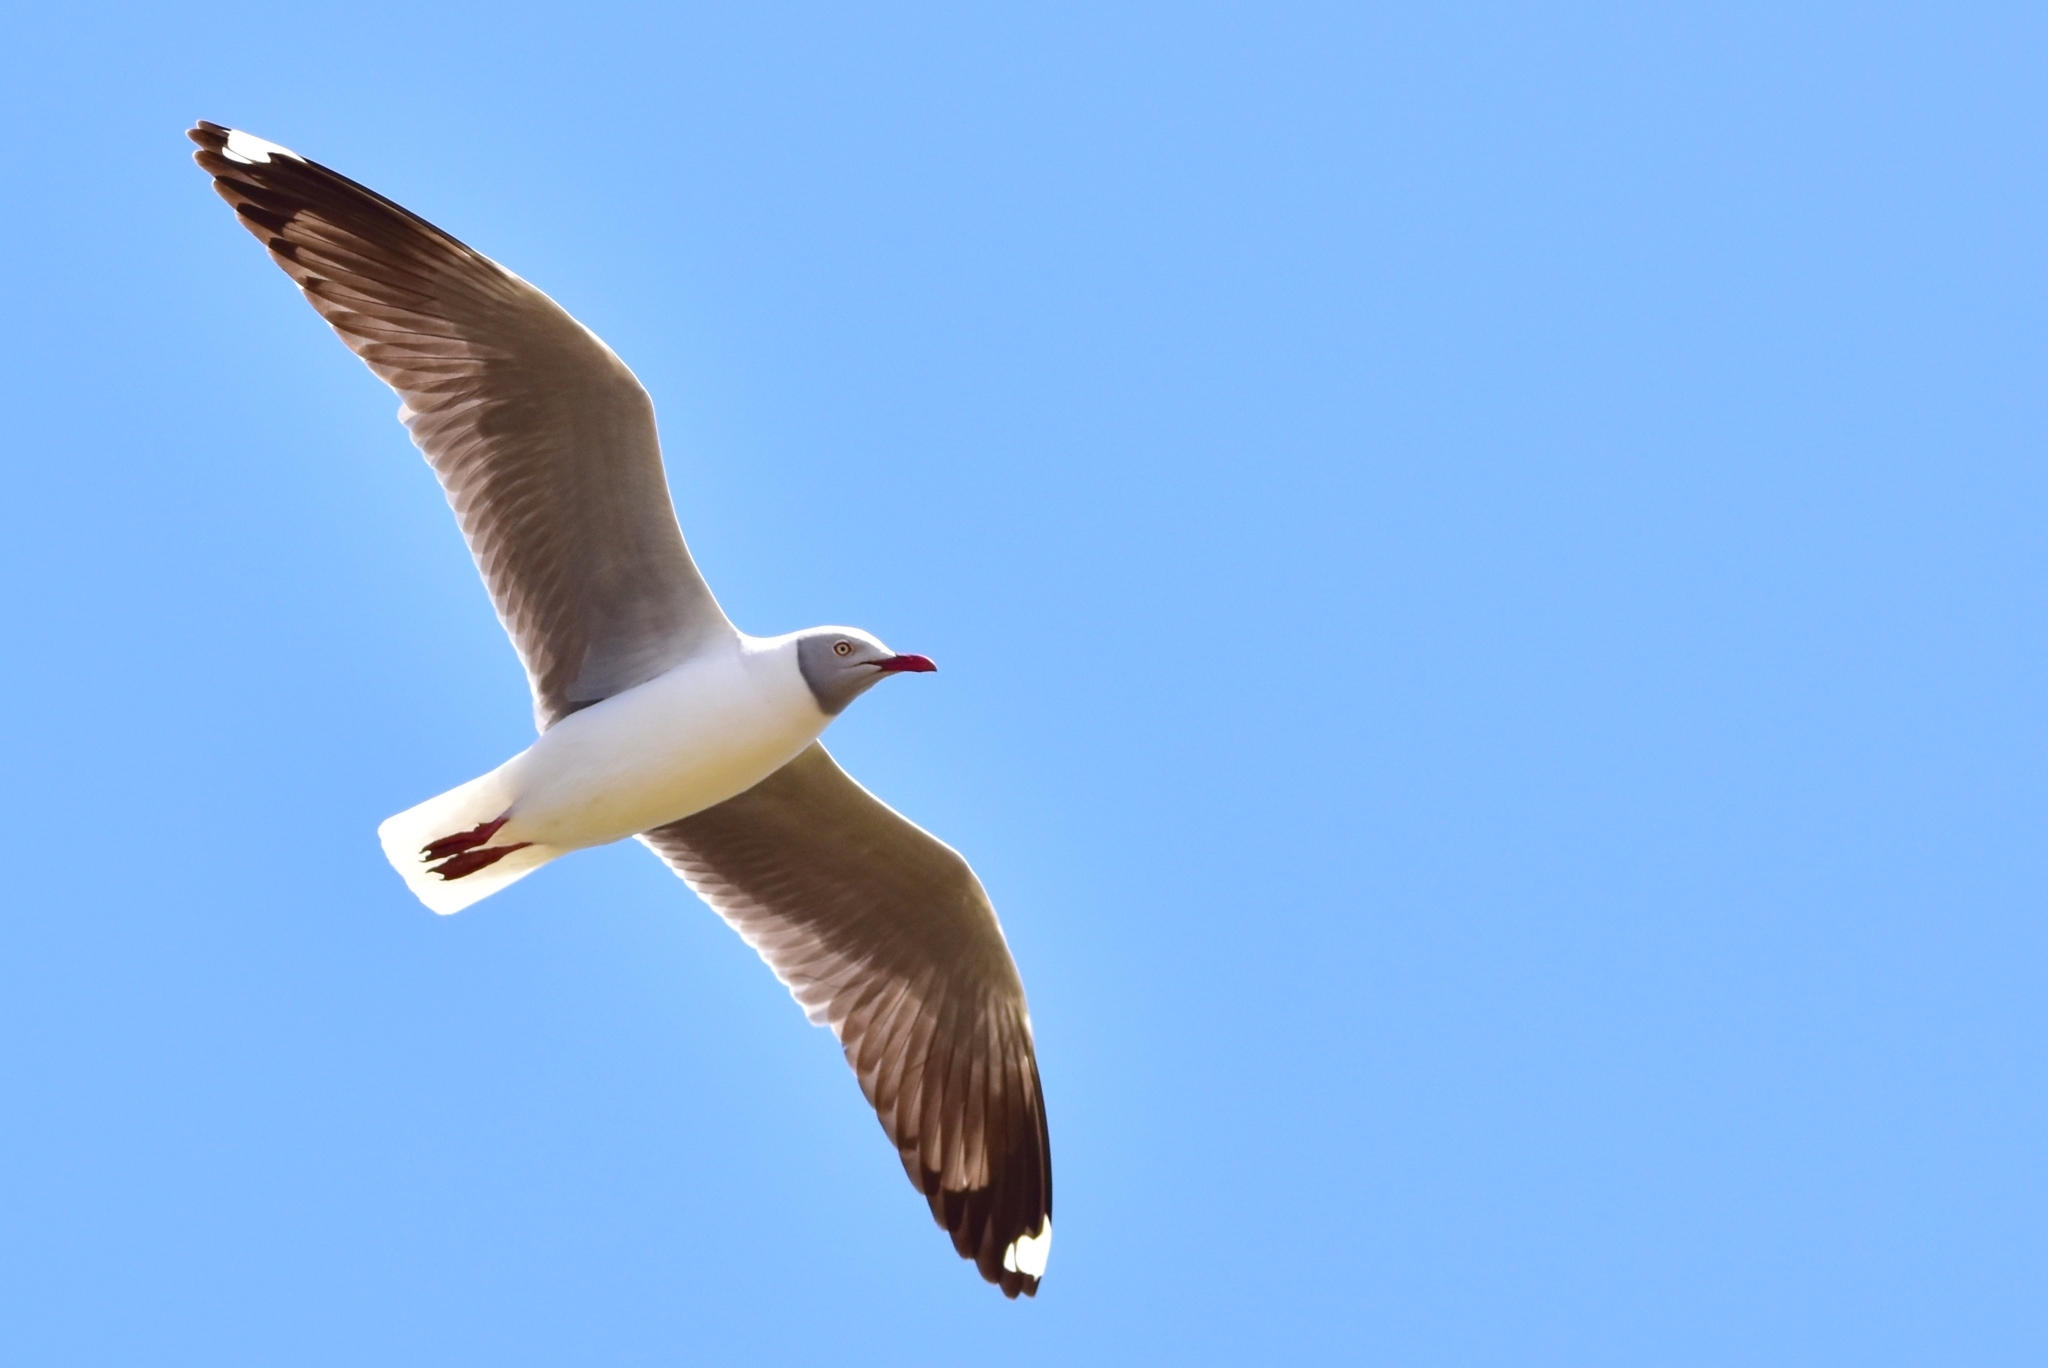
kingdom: Animalia
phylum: Chordata
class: Aves
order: Charadriiformes
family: Laridae
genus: Chroicocephalus
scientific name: Chroicocephalus cirrocephalus
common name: Grey-headed gull
